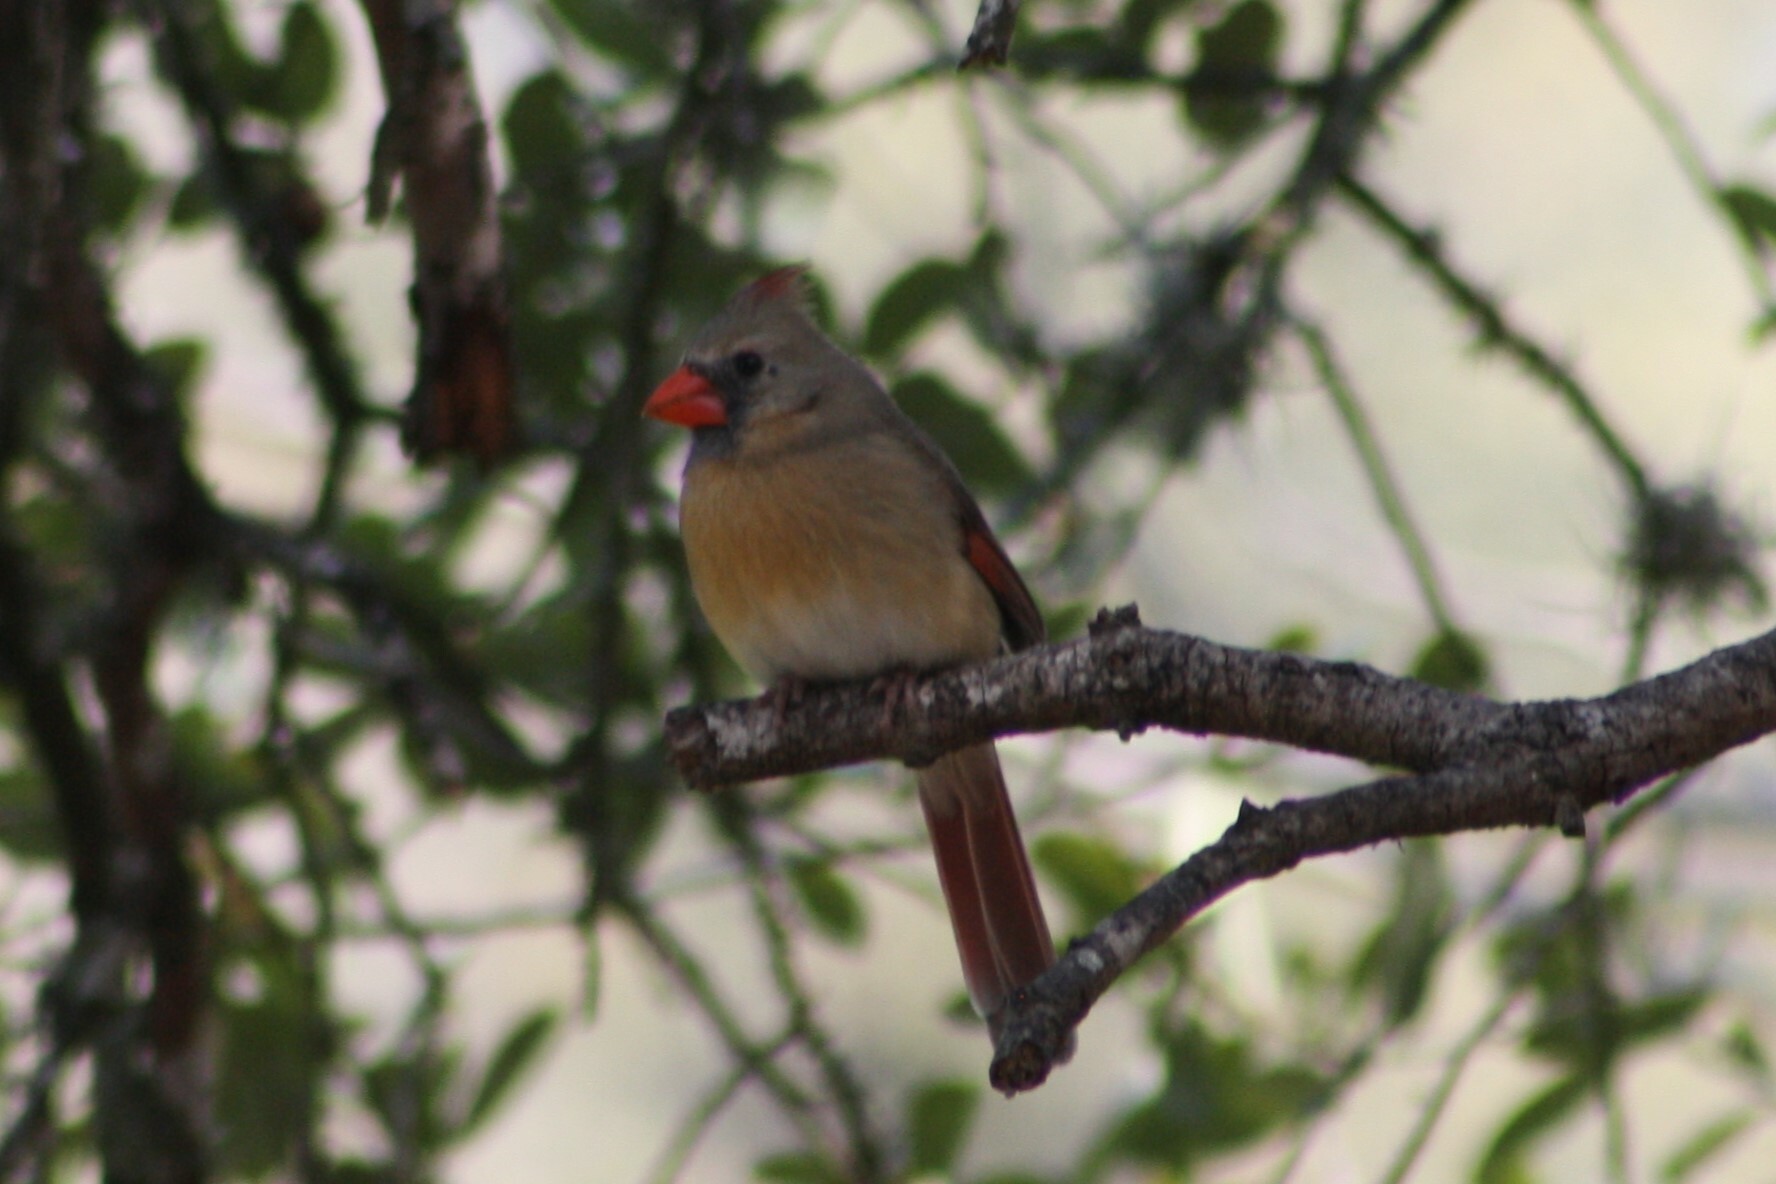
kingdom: Animalia
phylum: Chordata
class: Aves
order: Passeriformes
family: Cardinalidae
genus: Cardinalis
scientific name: Cardinalis cardinalis
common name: Northern cardinal
